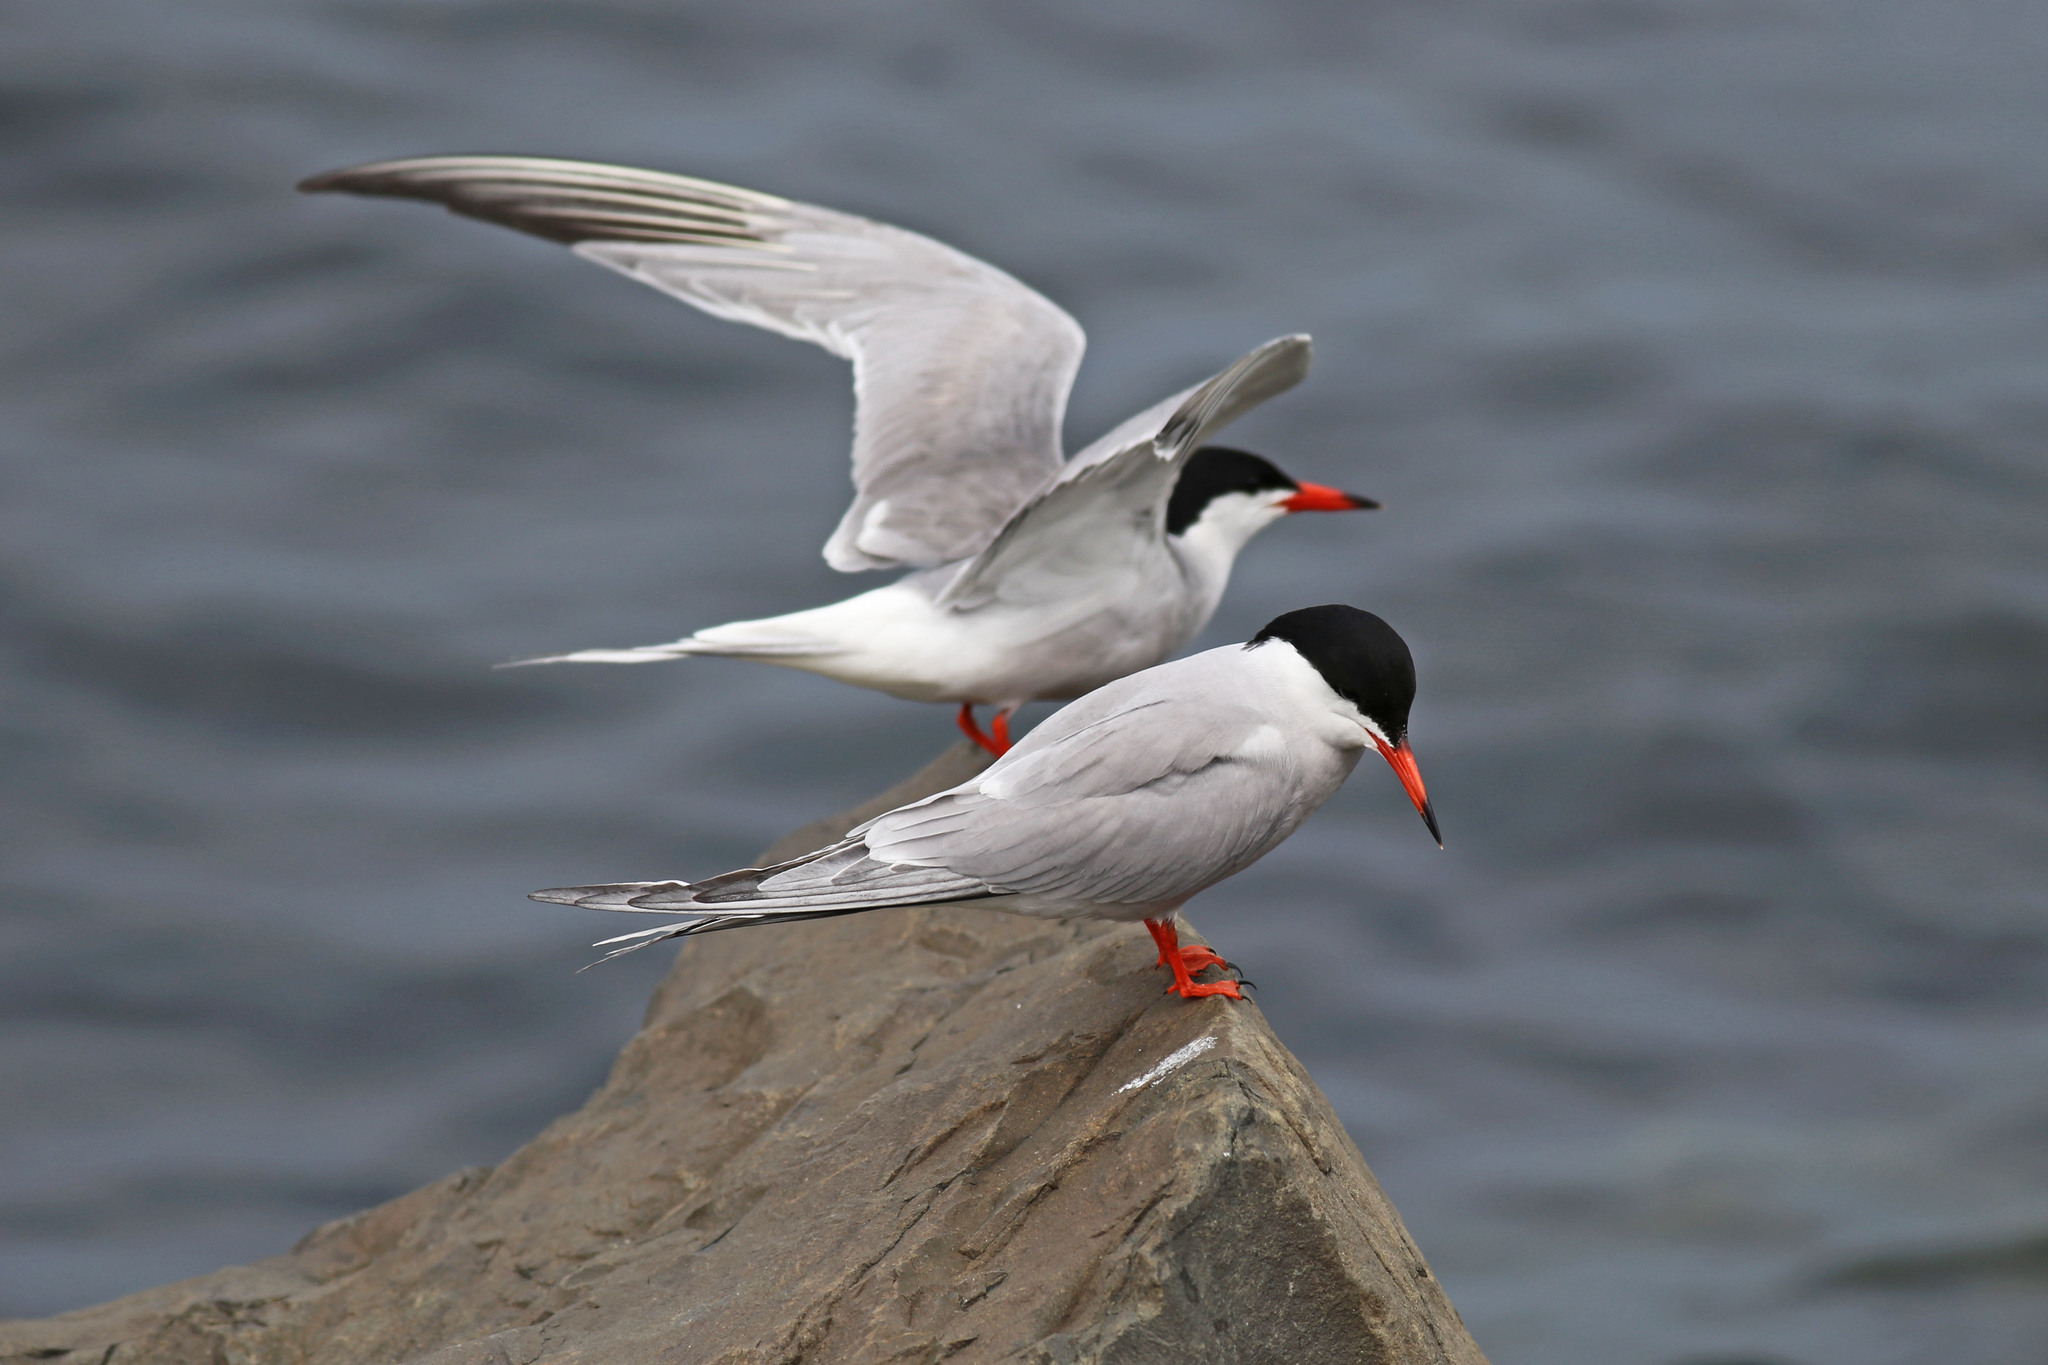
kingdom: Animalia
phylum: Chordata
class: Aves
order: Charadriiformes
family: Laridae
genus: Sterna
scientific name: Sterna hirundo
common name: Common tern
